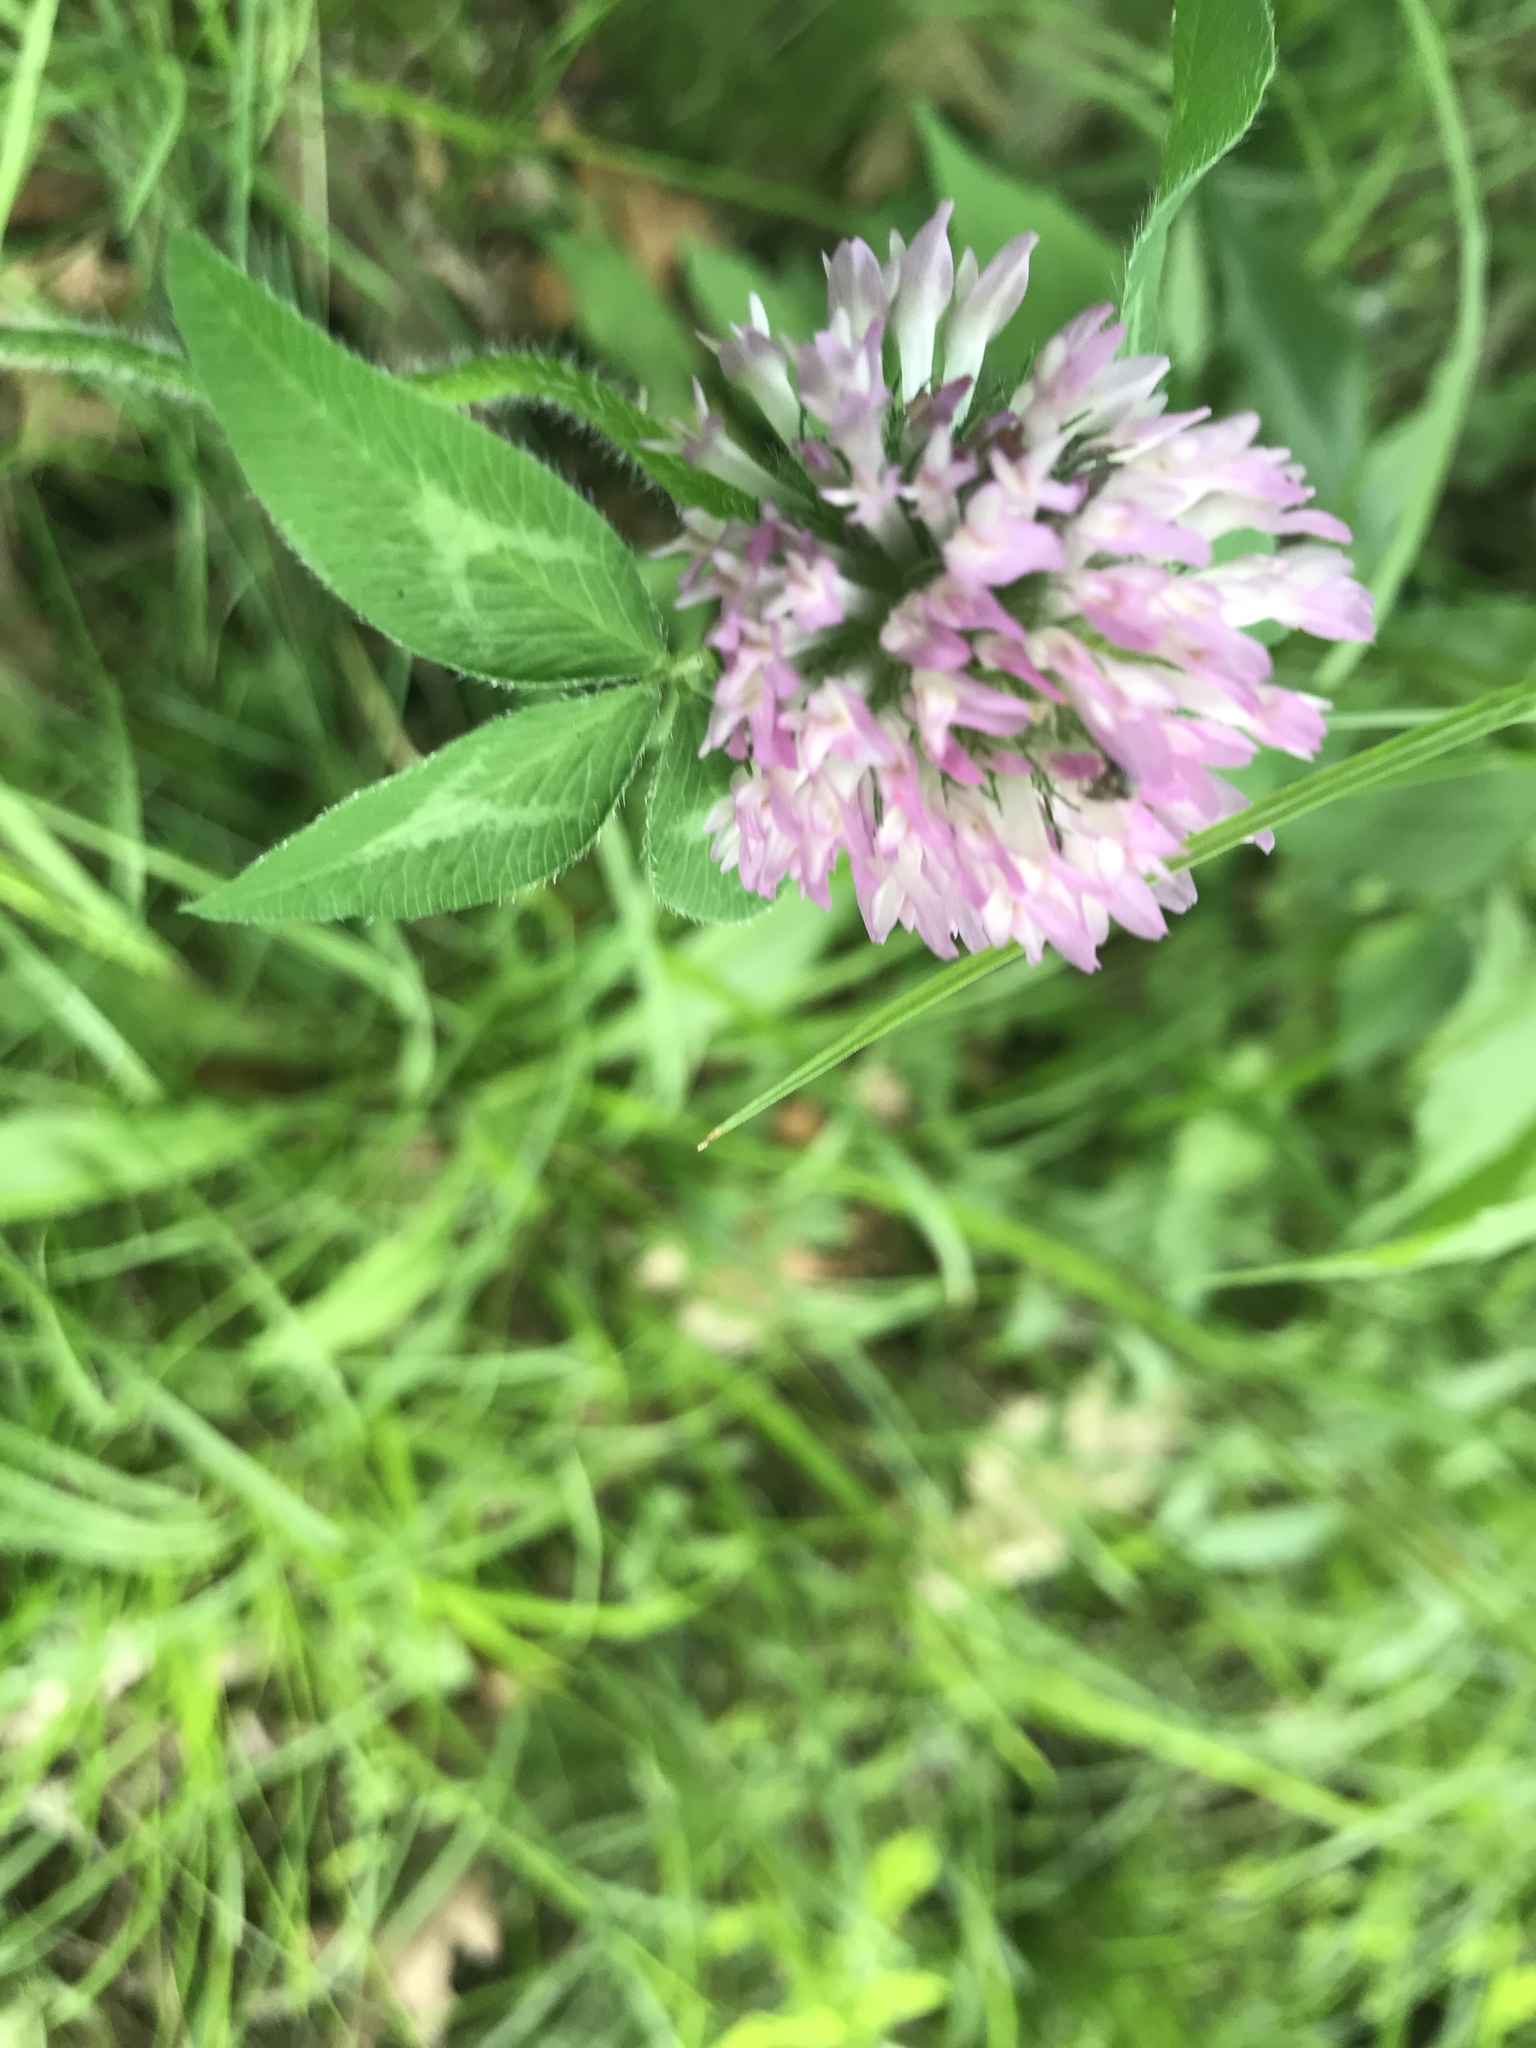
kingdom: Plantae
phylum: Tracheophyta
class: Magnoliopsida
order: Fabales
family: Fabaceae
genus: Trifolium
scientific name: Trifolium pratense
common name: Red clover
